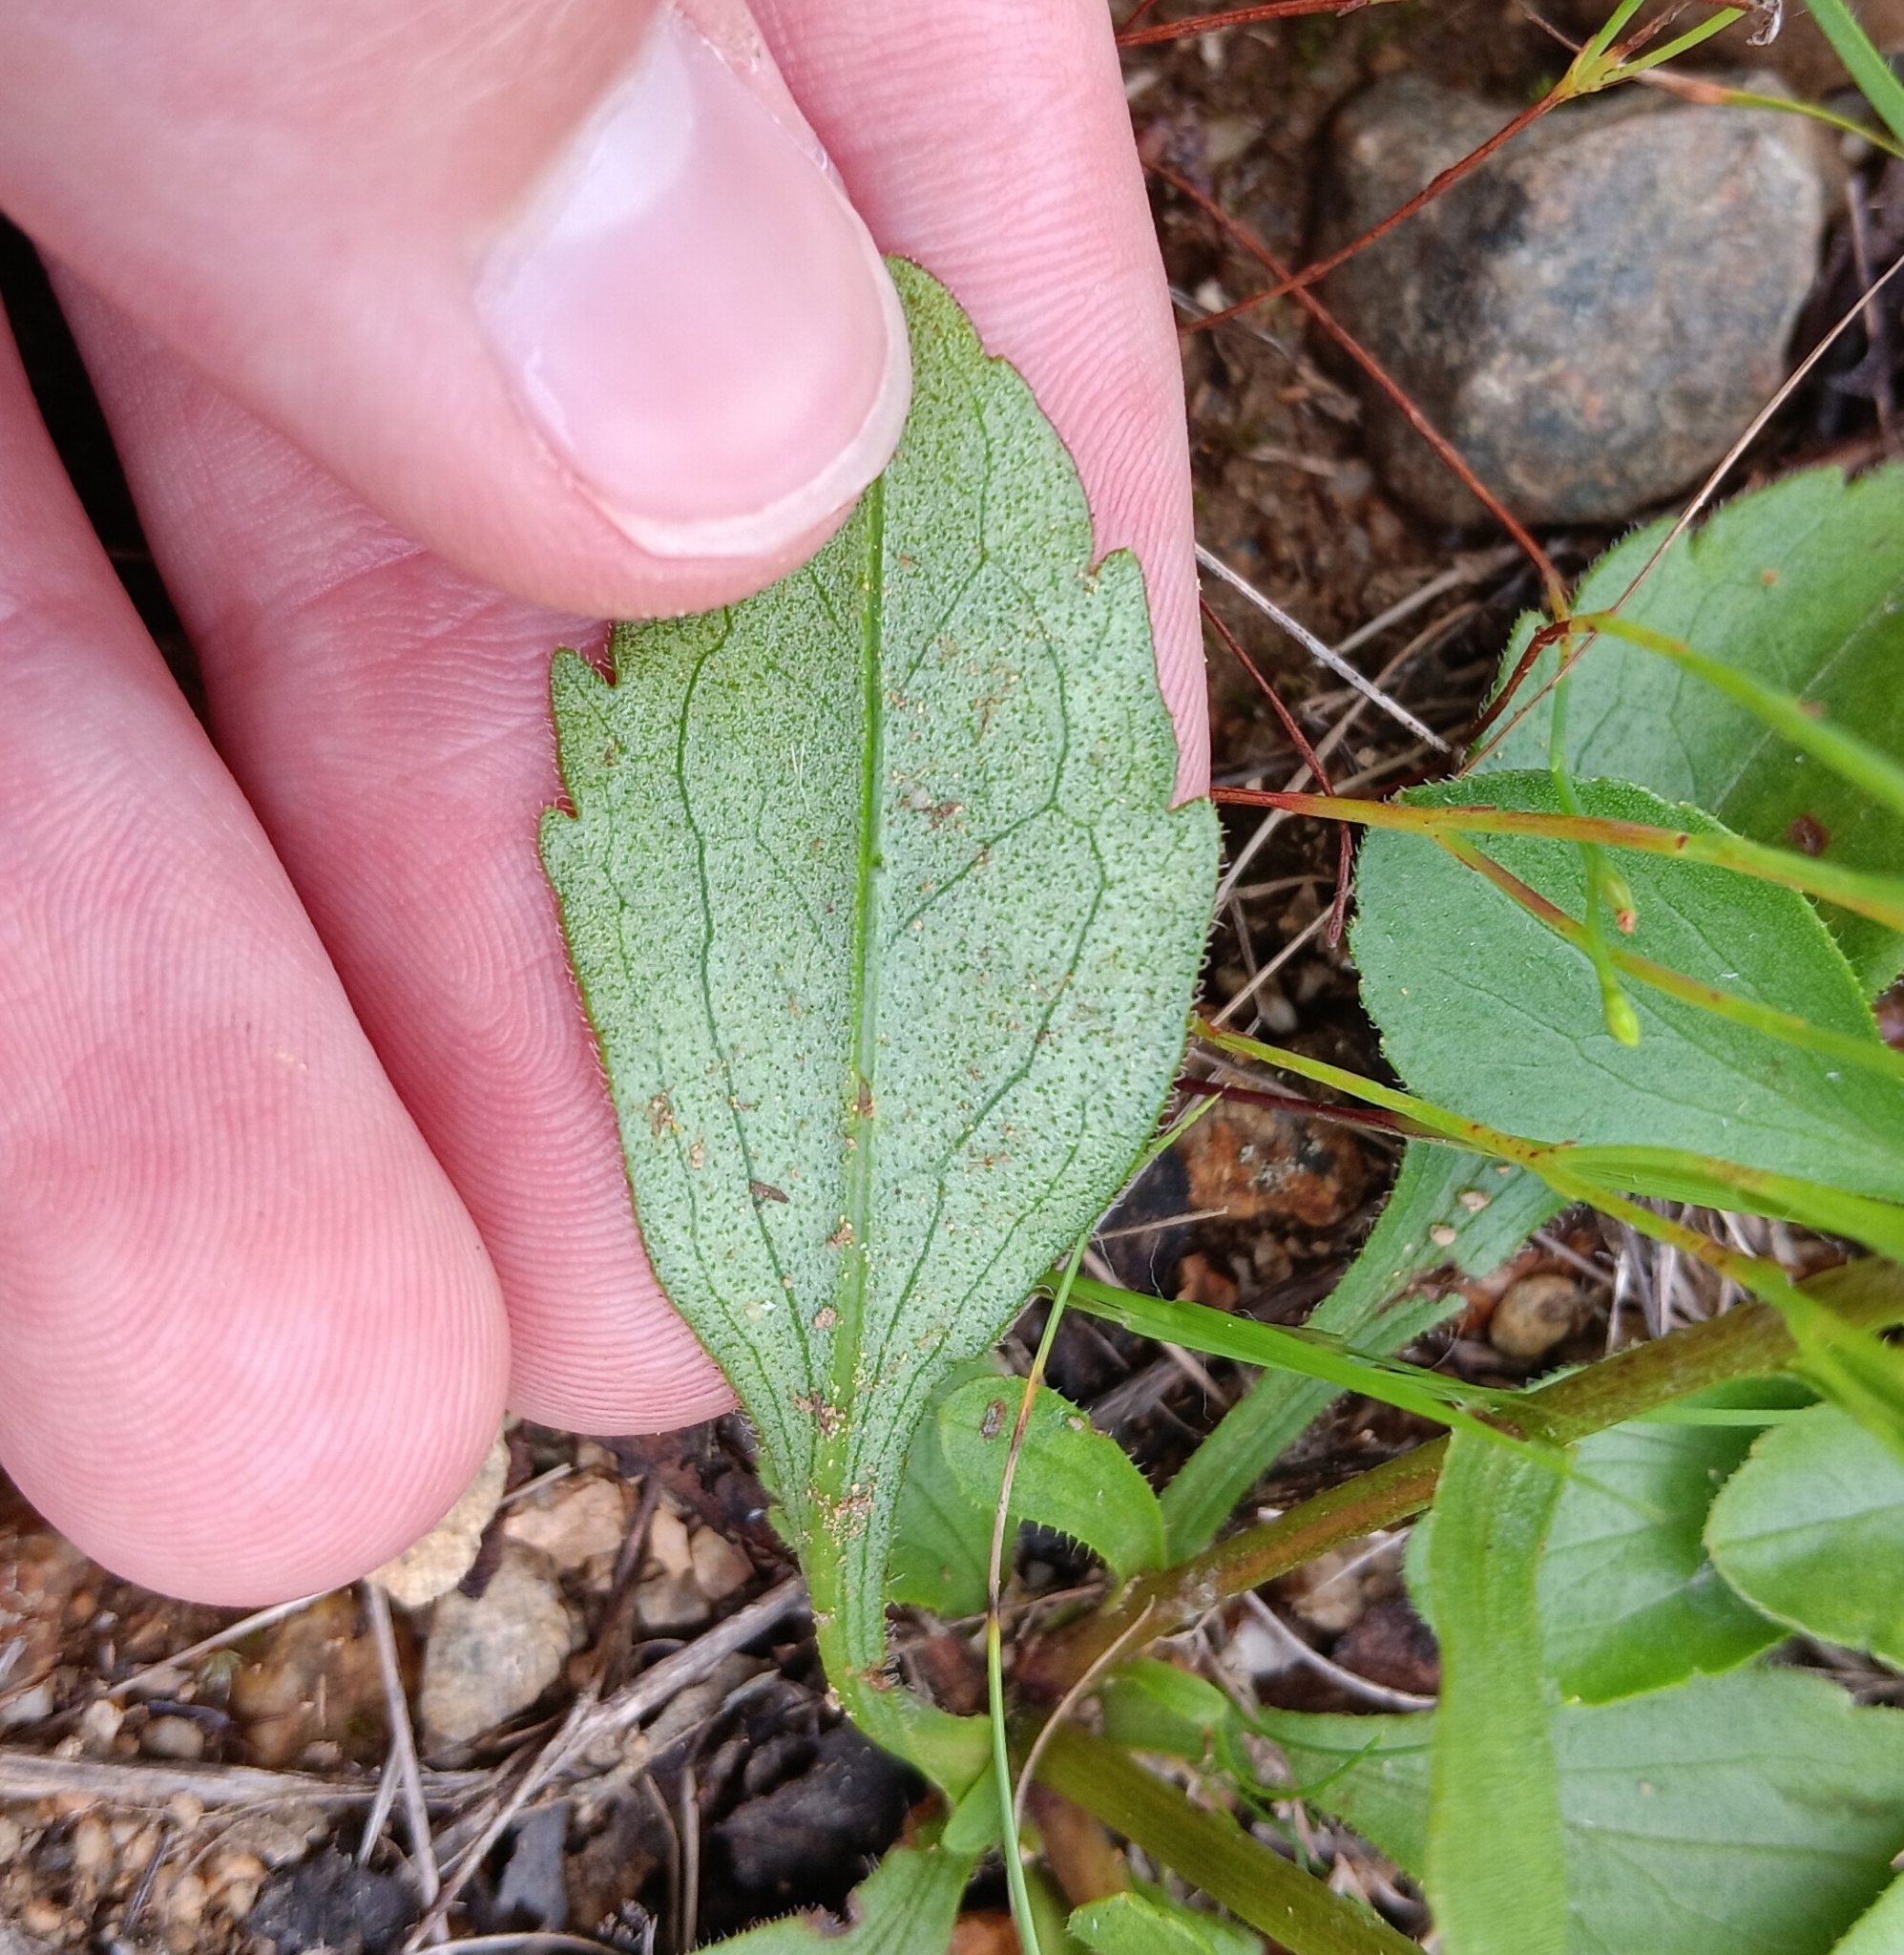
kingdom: Plantae
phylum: Tracheophyta
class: Magnoliopsida
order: Asterales
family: Asteraceae
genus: Sericocarpus
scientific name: Sericocarpus asteroides
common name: Toothed white-top aster
